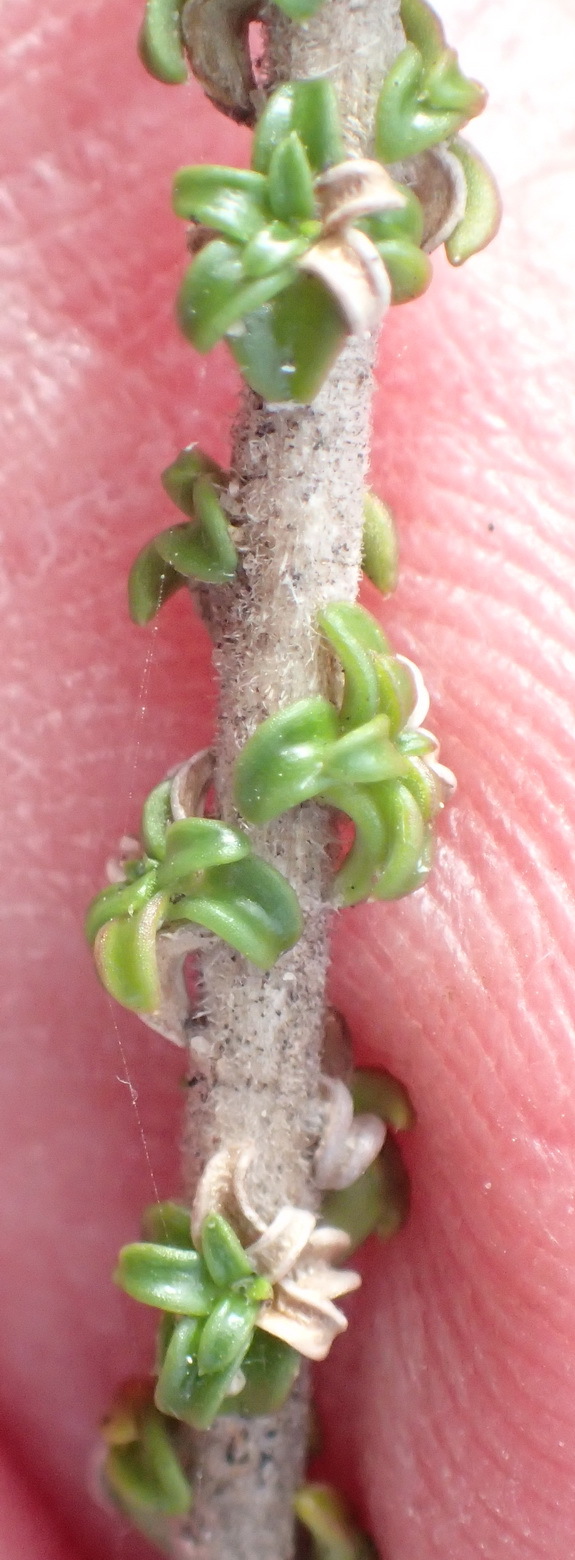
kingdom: Plantae
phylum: Tracheophyta
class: Magnoliopsida
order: Asterales
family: Campanulaceae
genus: Wahlenbergia
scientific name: Wahlenbergia tenella
